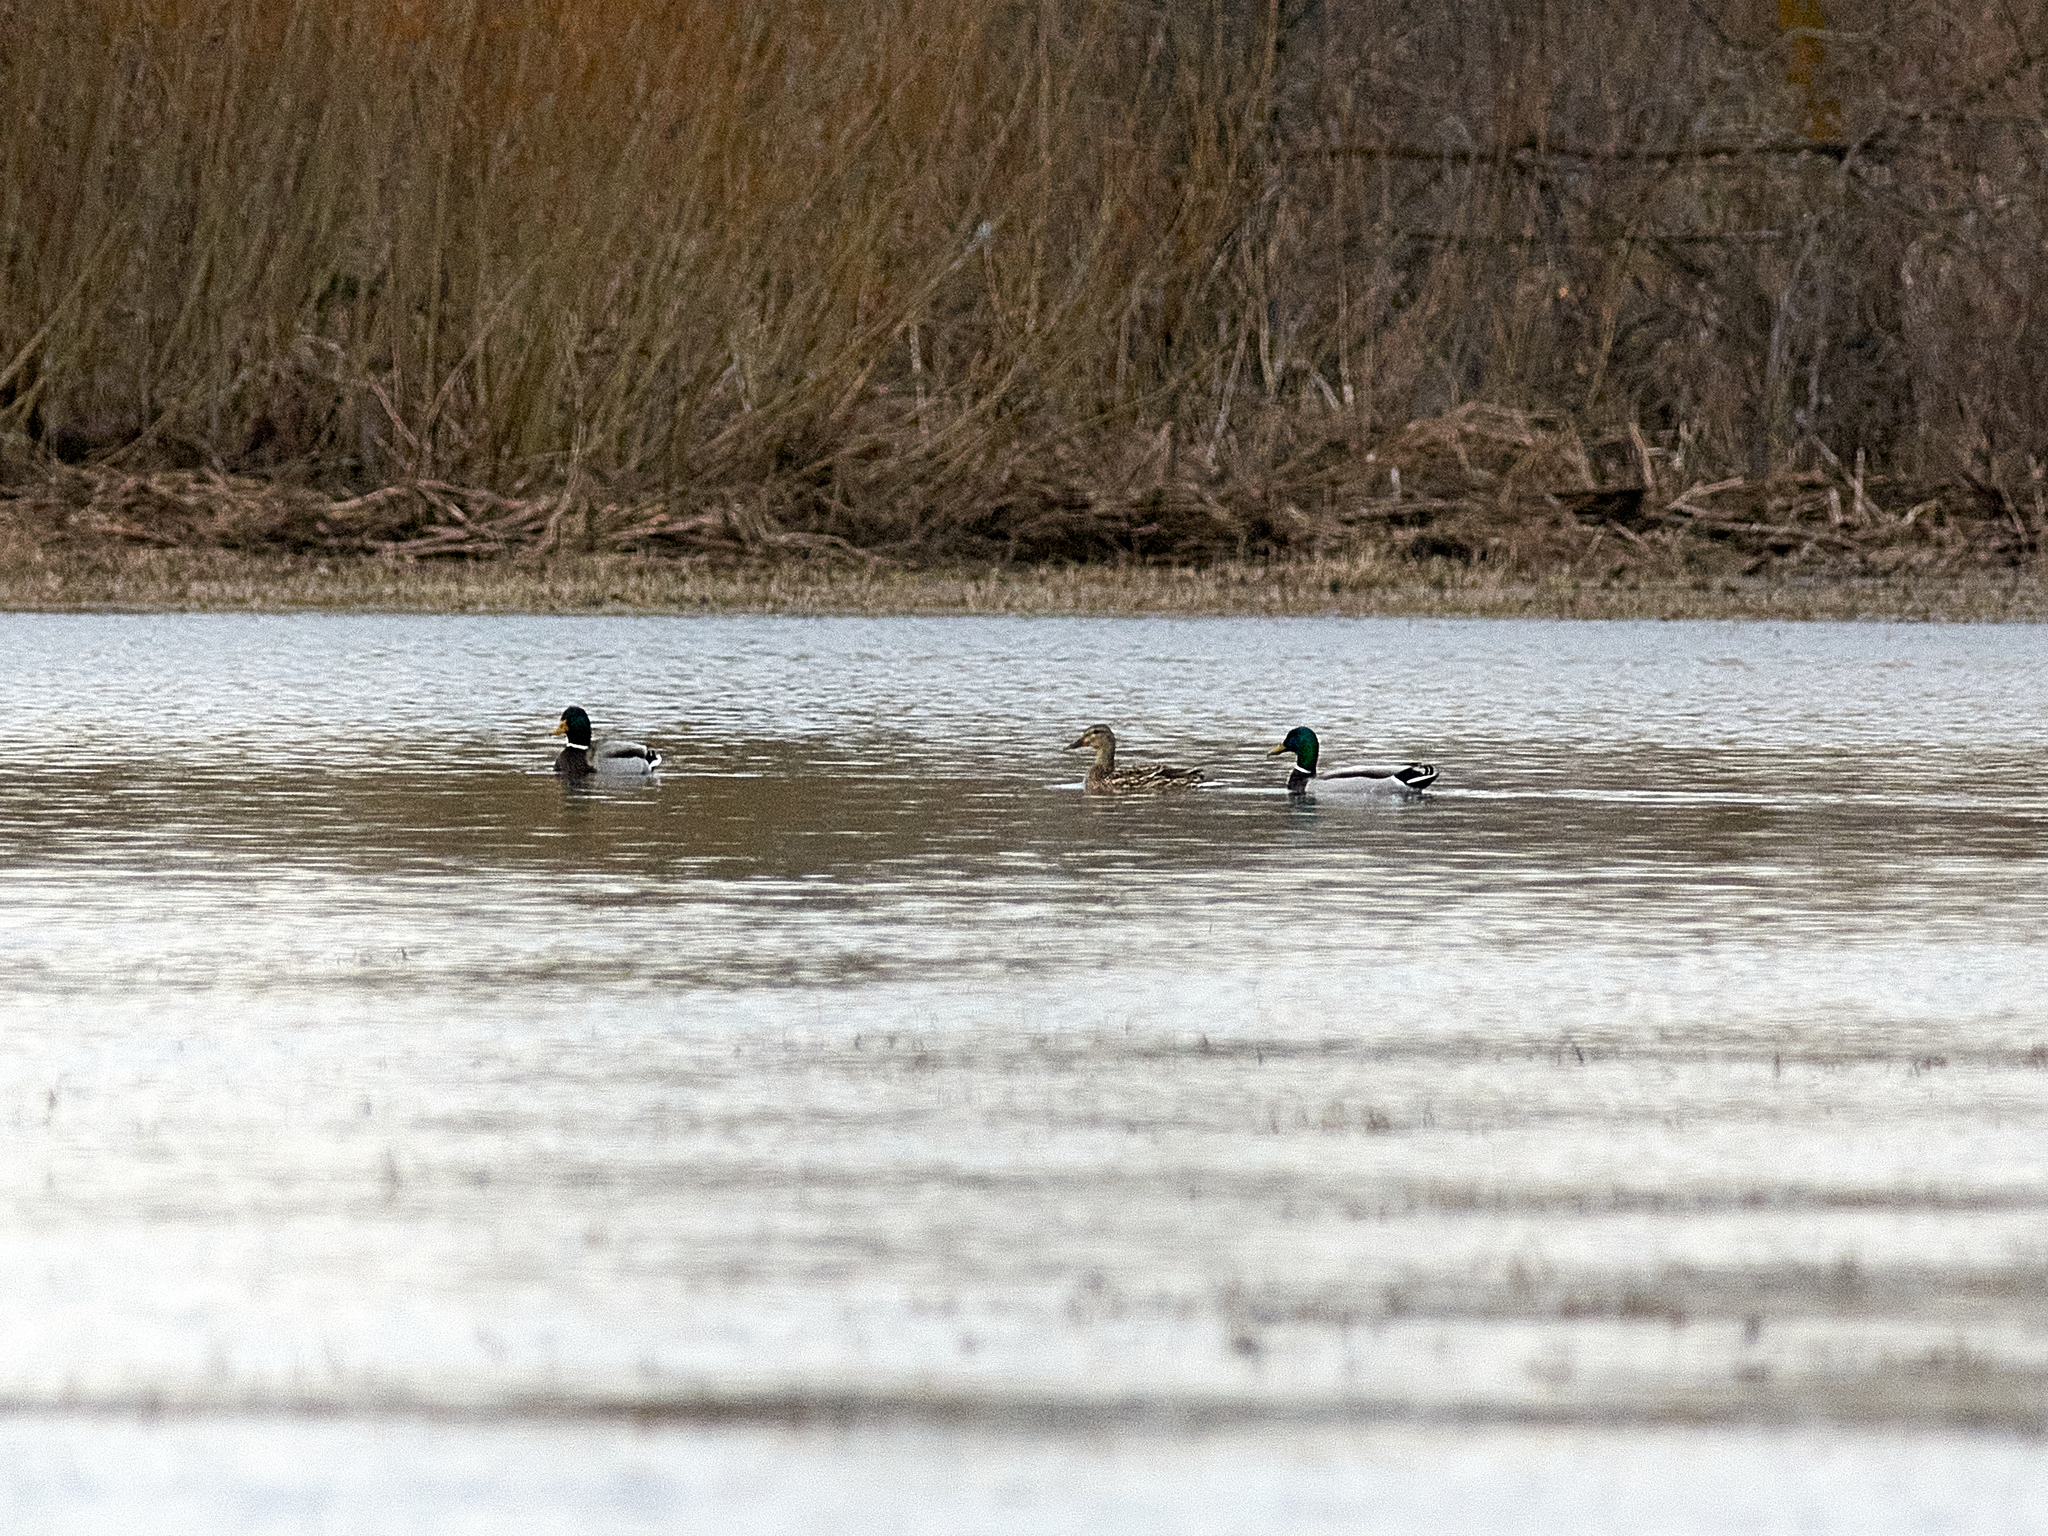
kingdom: Animalia
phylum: Chordata
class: Aves
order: Anseriformes
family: Anatidae
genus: Anas
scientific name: Anas platyrhynchos
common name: Mallard
